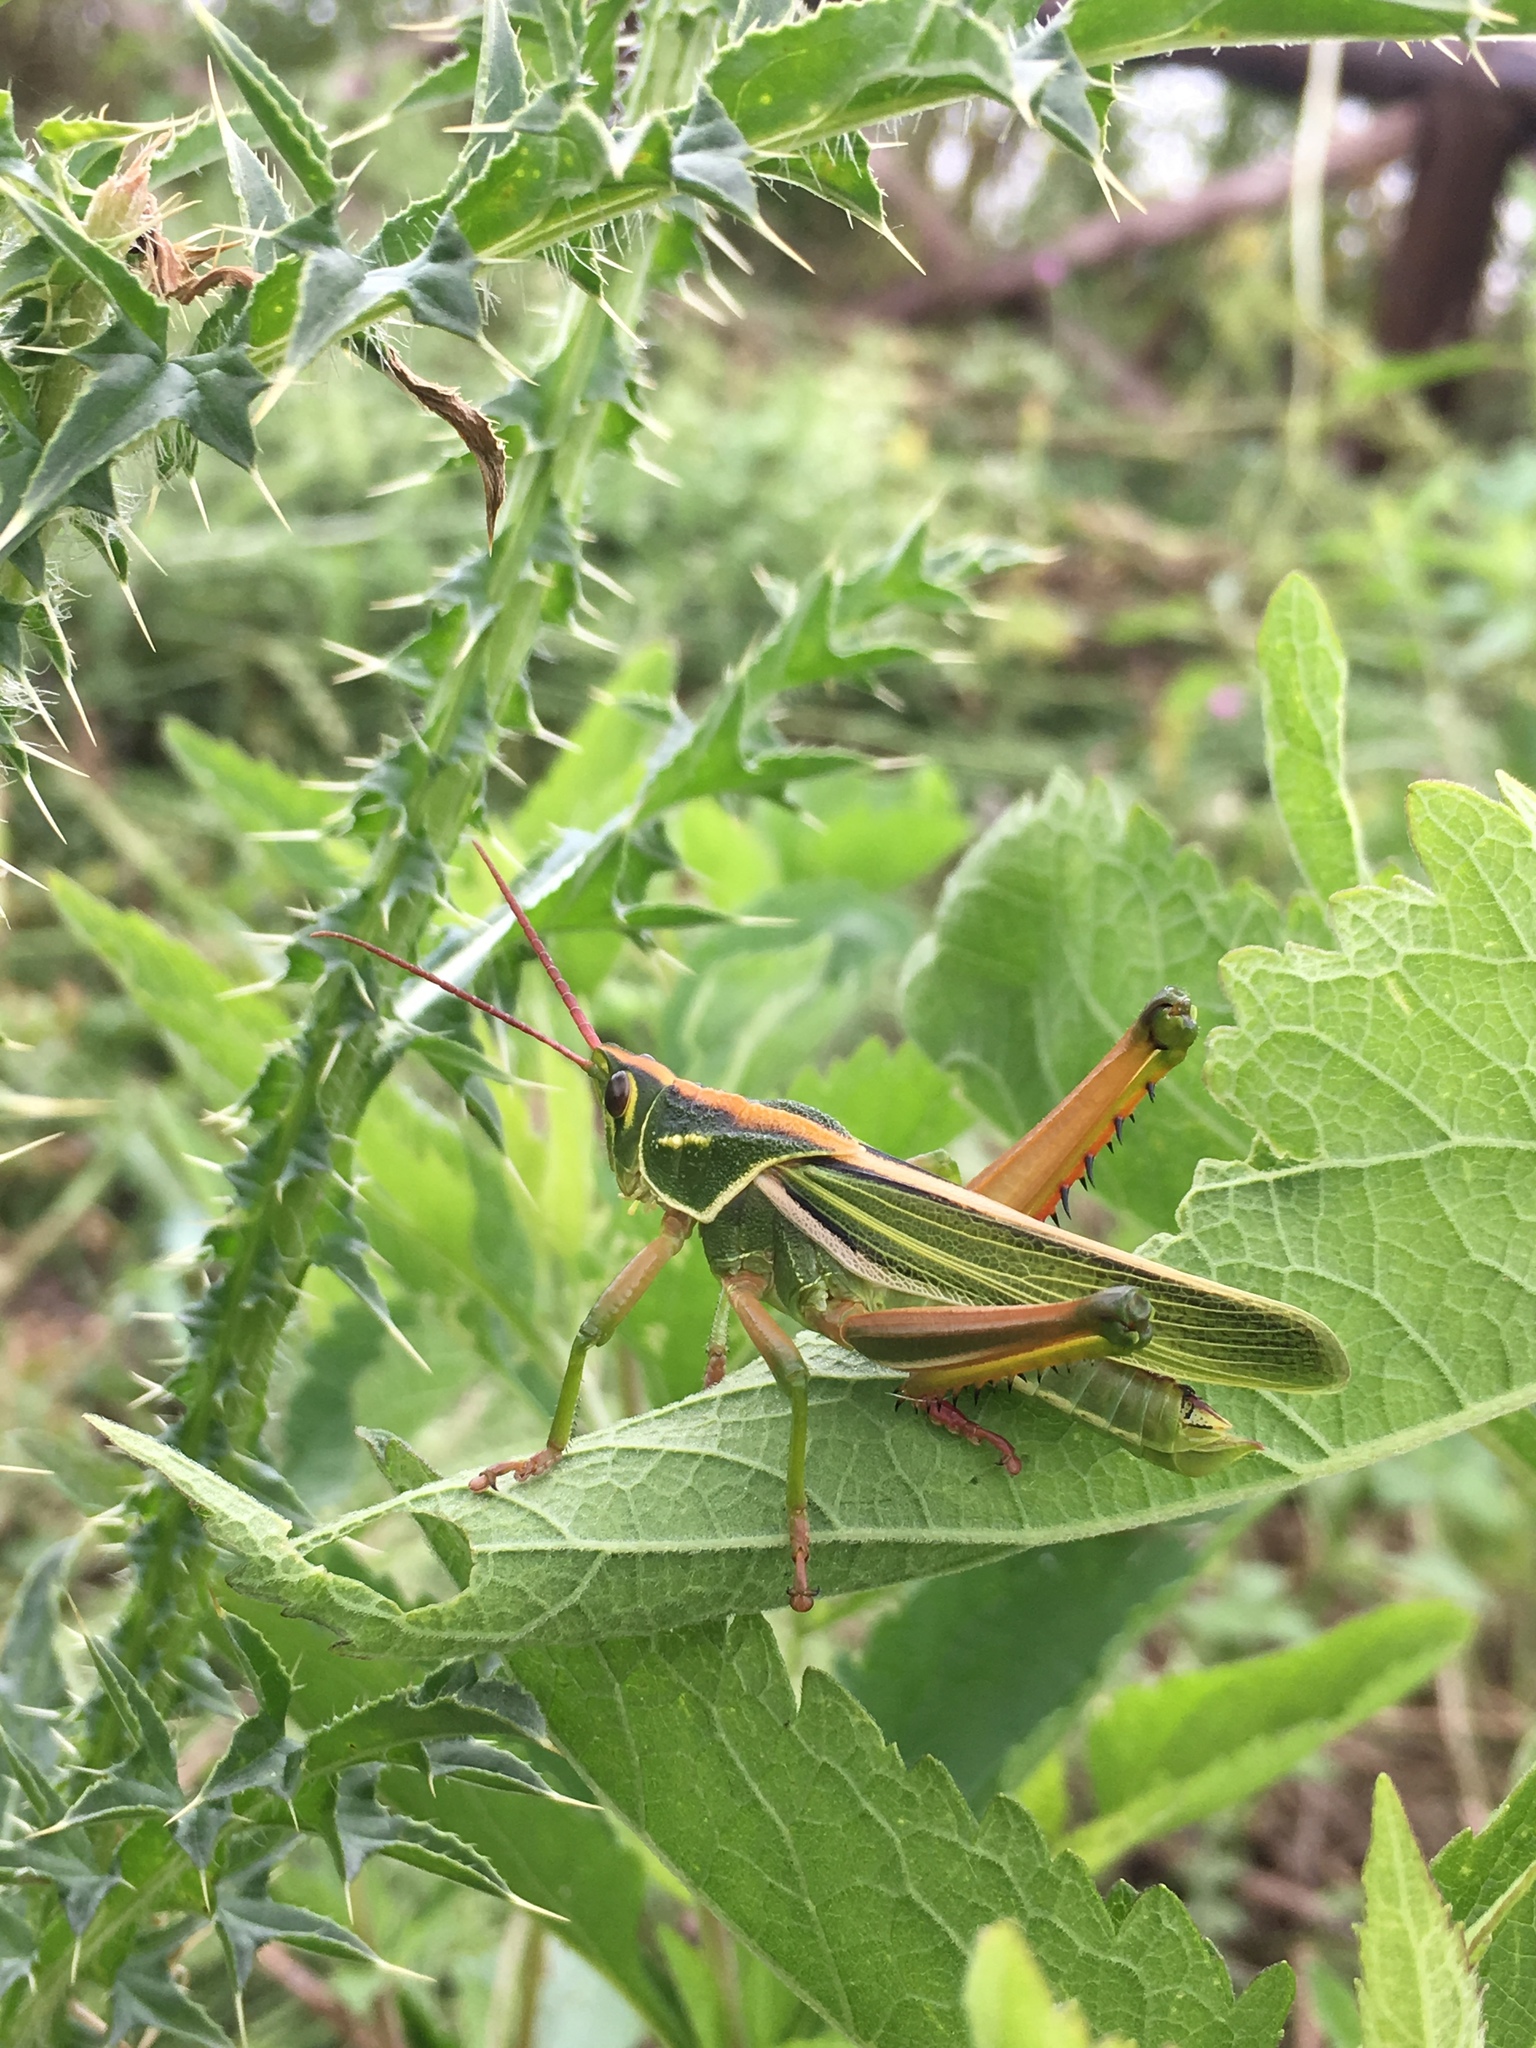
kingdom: Animalia
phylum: Arthropoda
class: Insecta
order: Orthoptera
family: Romaleidae
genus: Staleochlora
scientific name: Staleochlora viridicata
